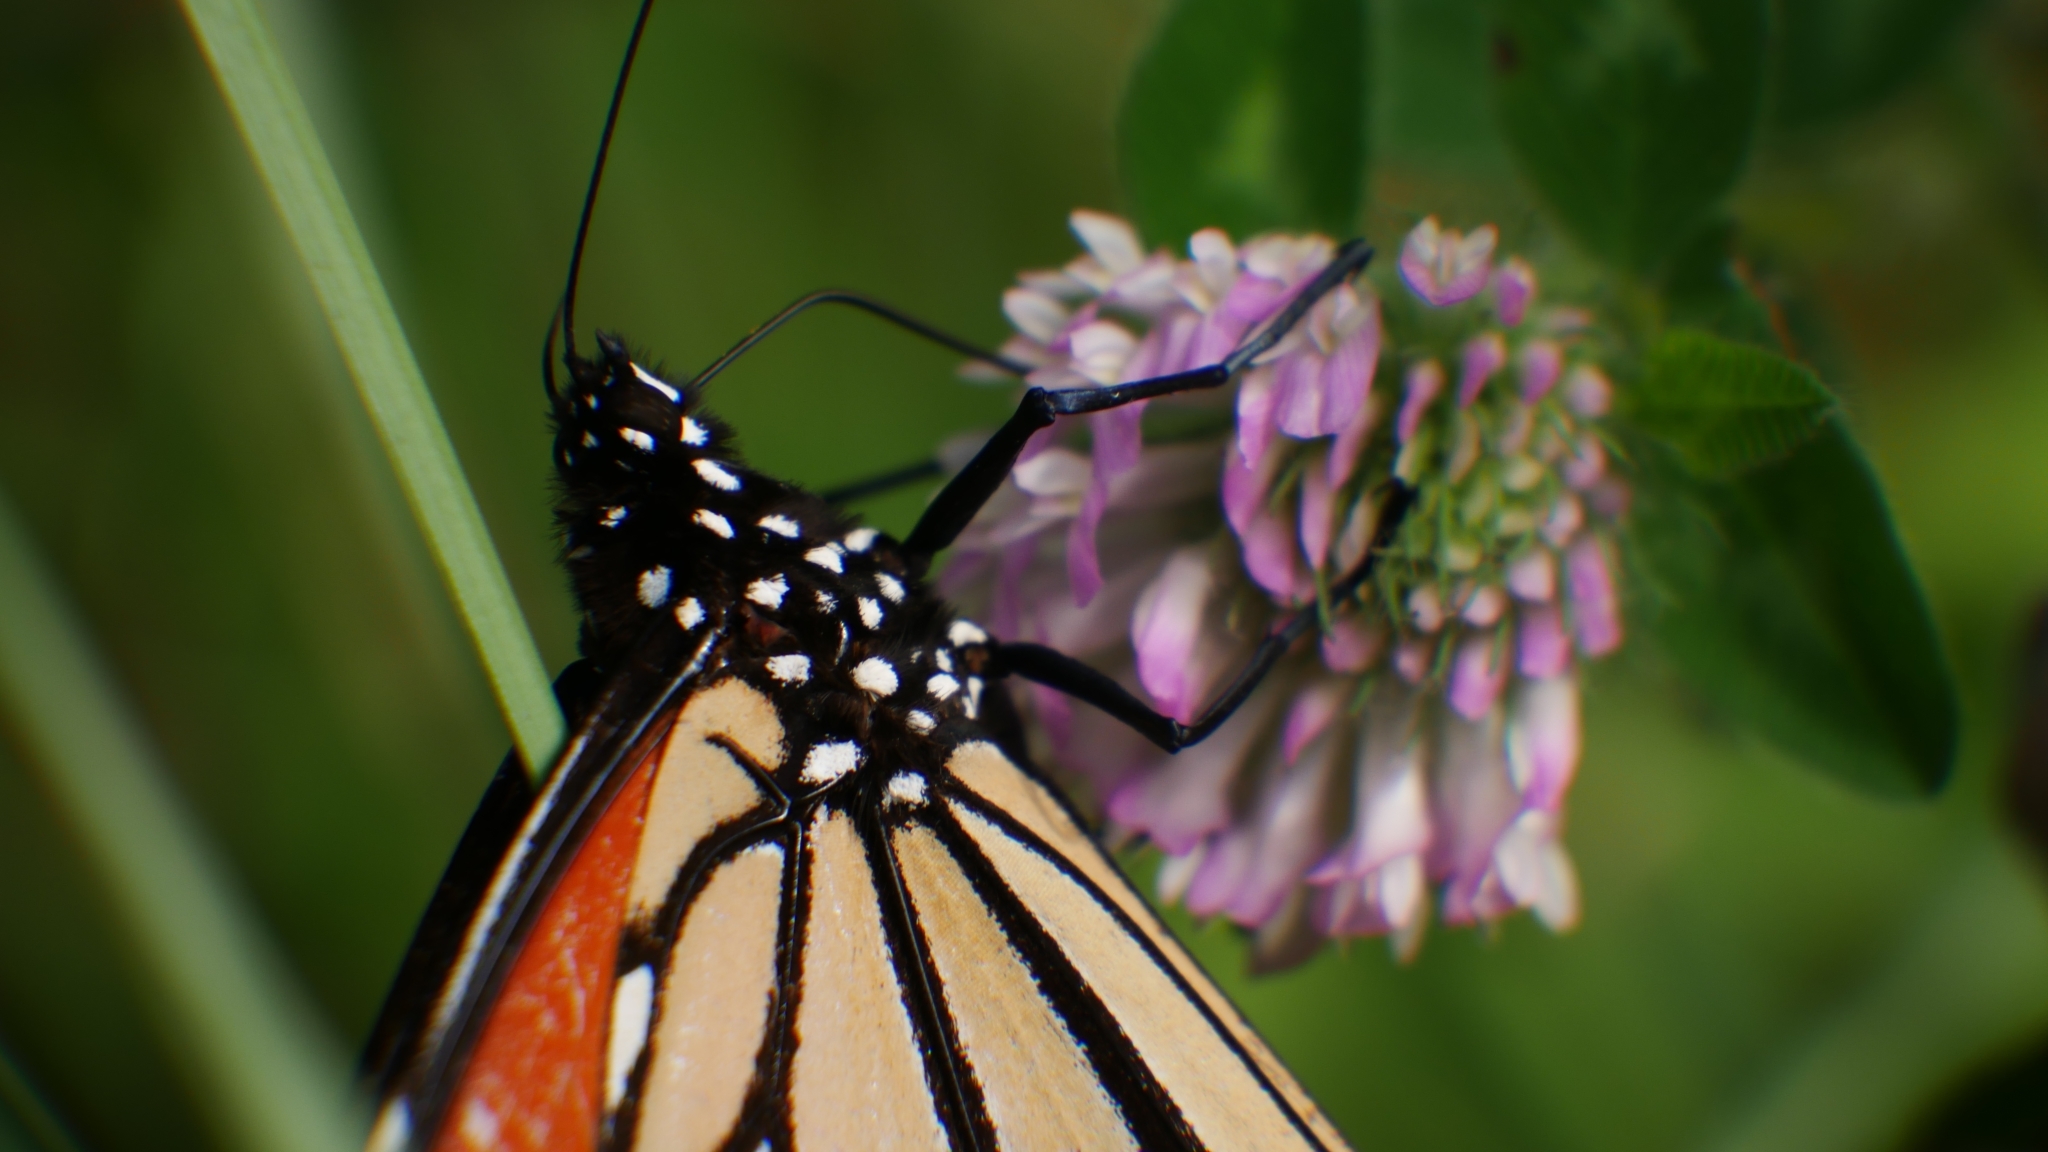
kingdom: Animalia
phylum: Arthropoda
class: Insecta
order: Lepidoptera
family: Nymphalidae
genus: Danaus
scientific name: Danaus plexippus
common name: Monarch
